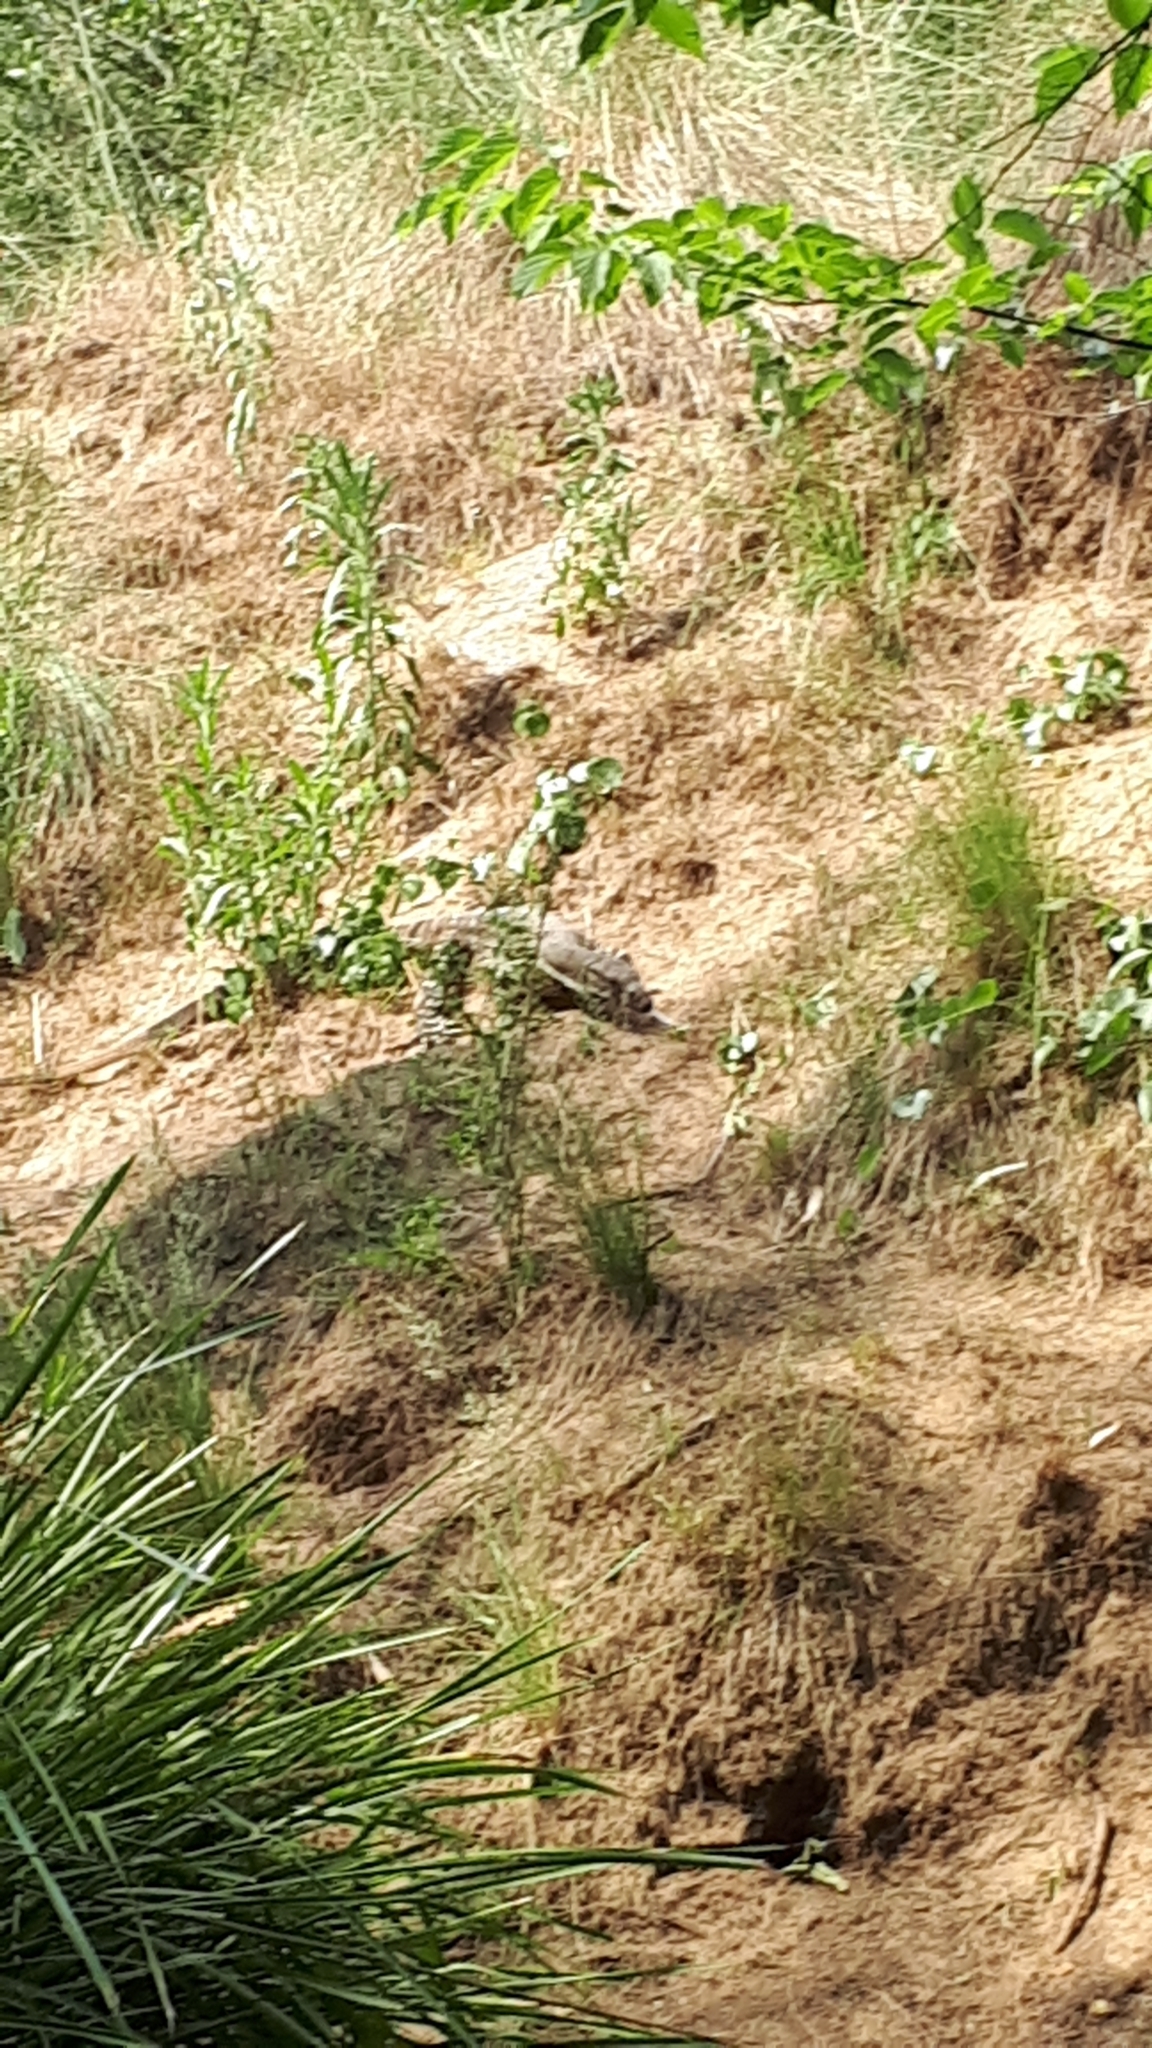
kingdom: Animalia
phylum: Chordata
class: Squamata
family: Varanidae
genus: Varanus
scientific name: Varanus varius
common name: Lace monitor
